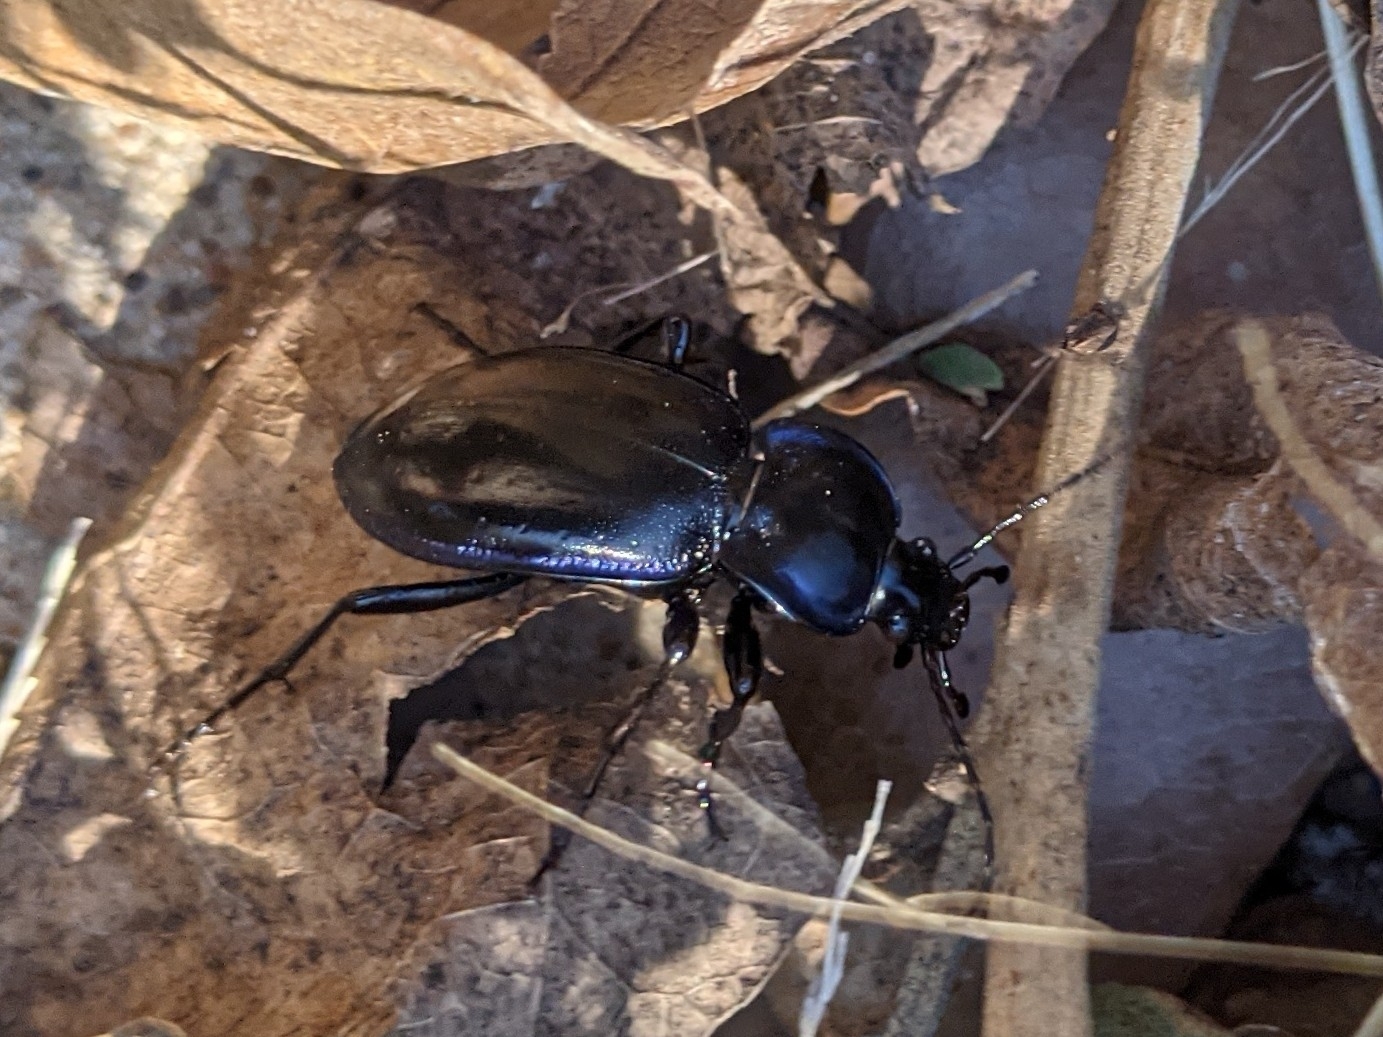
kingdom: Animalia
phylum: Arthropoda
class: Insecta
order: Coleoptera
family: Carabidae
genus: Carabus
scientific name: Carabus finitimus
